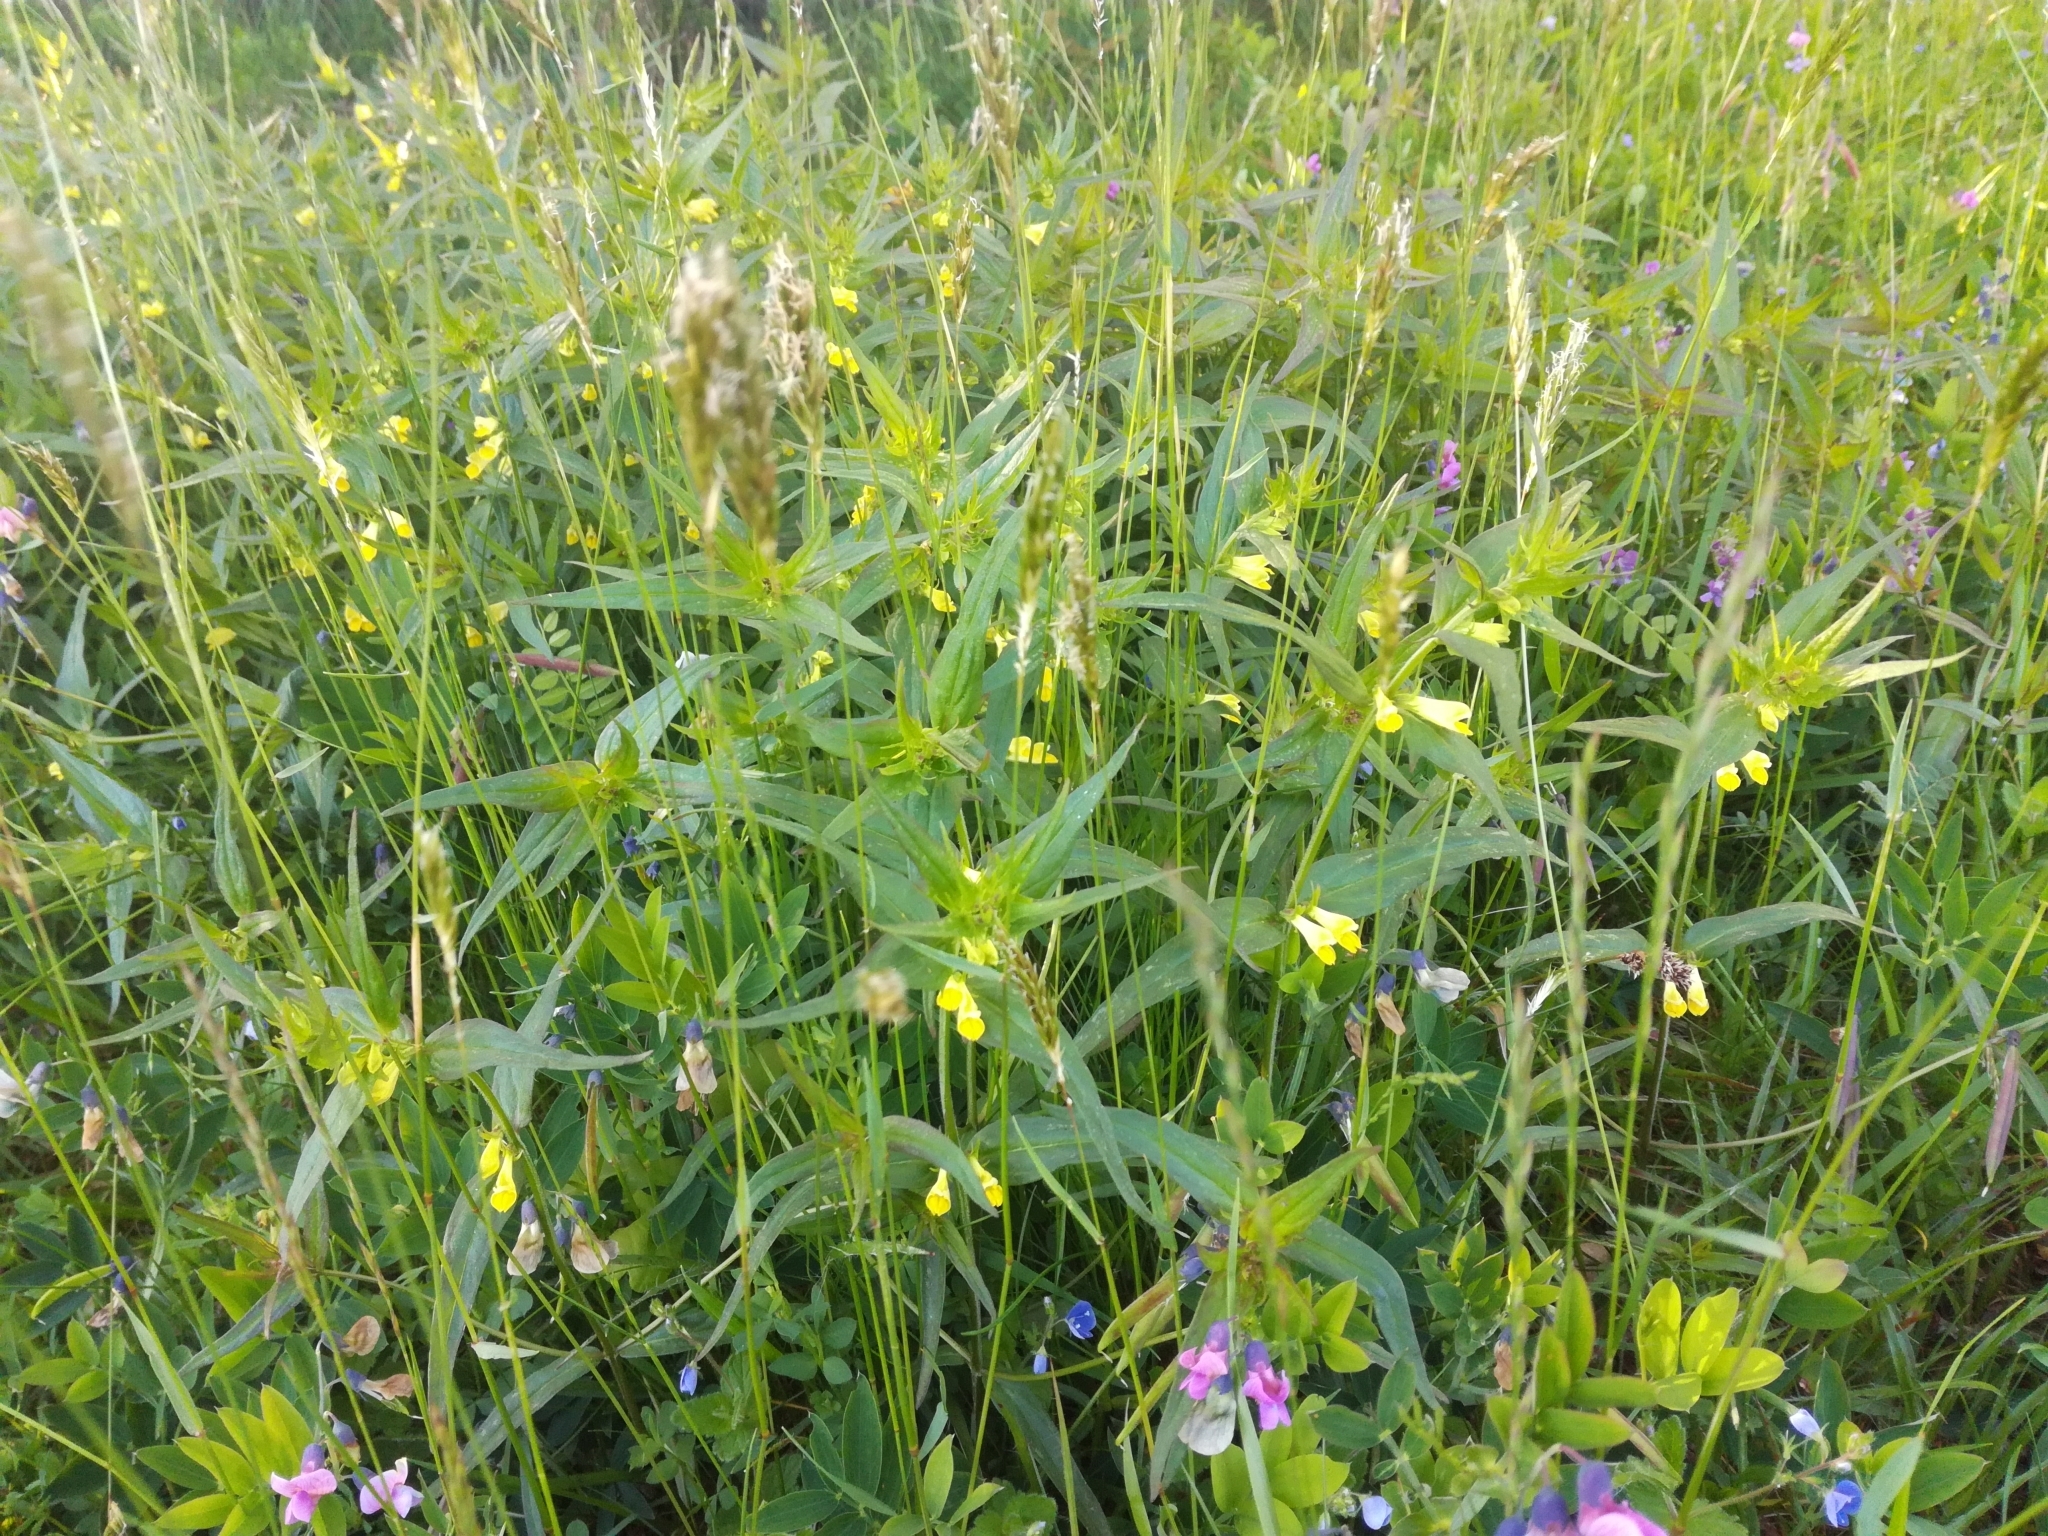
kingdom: Plantae
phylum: Tracheophyta
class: Magnoliopsida
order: Lamiales
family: Orobanchaceae
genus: Melampyrum
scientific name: Melampyrum pratense
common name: Common cow-wheat
